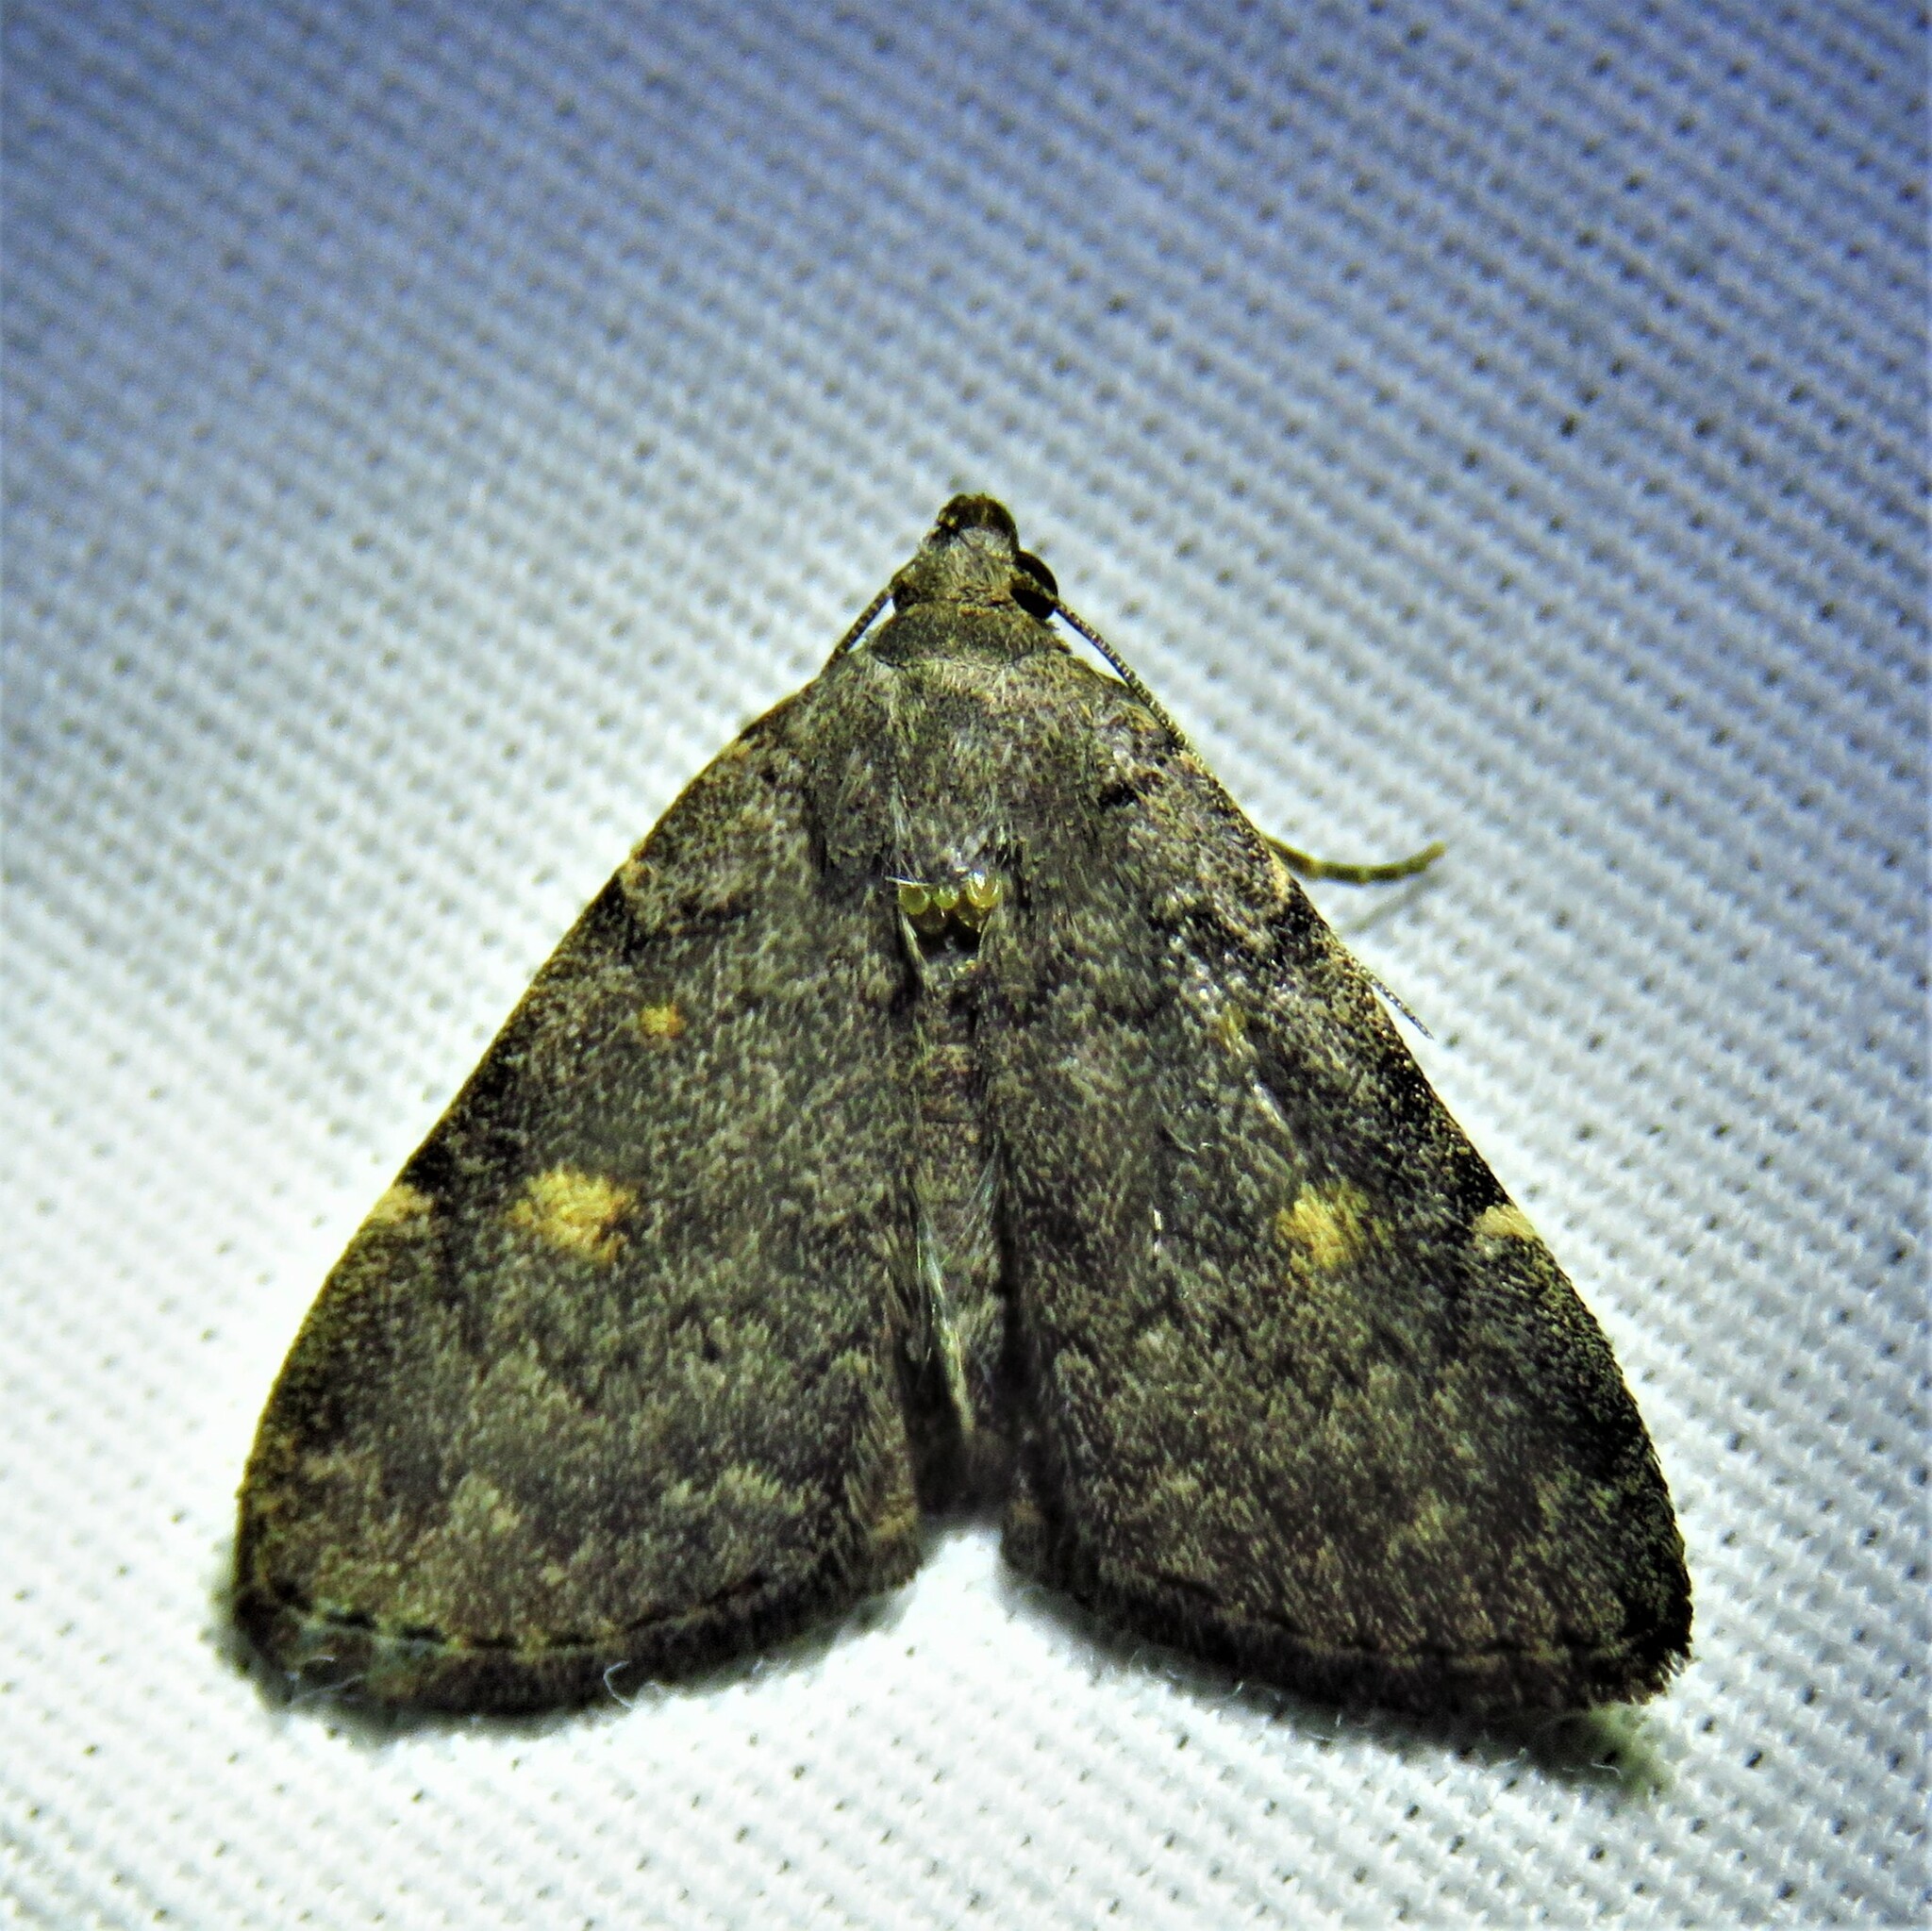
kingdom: Animalia
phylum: Arthropoda
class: Insecta
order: Lepidoptera
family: Erebidae
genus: Idia
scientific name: Idia aemula
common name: Common idia moth
